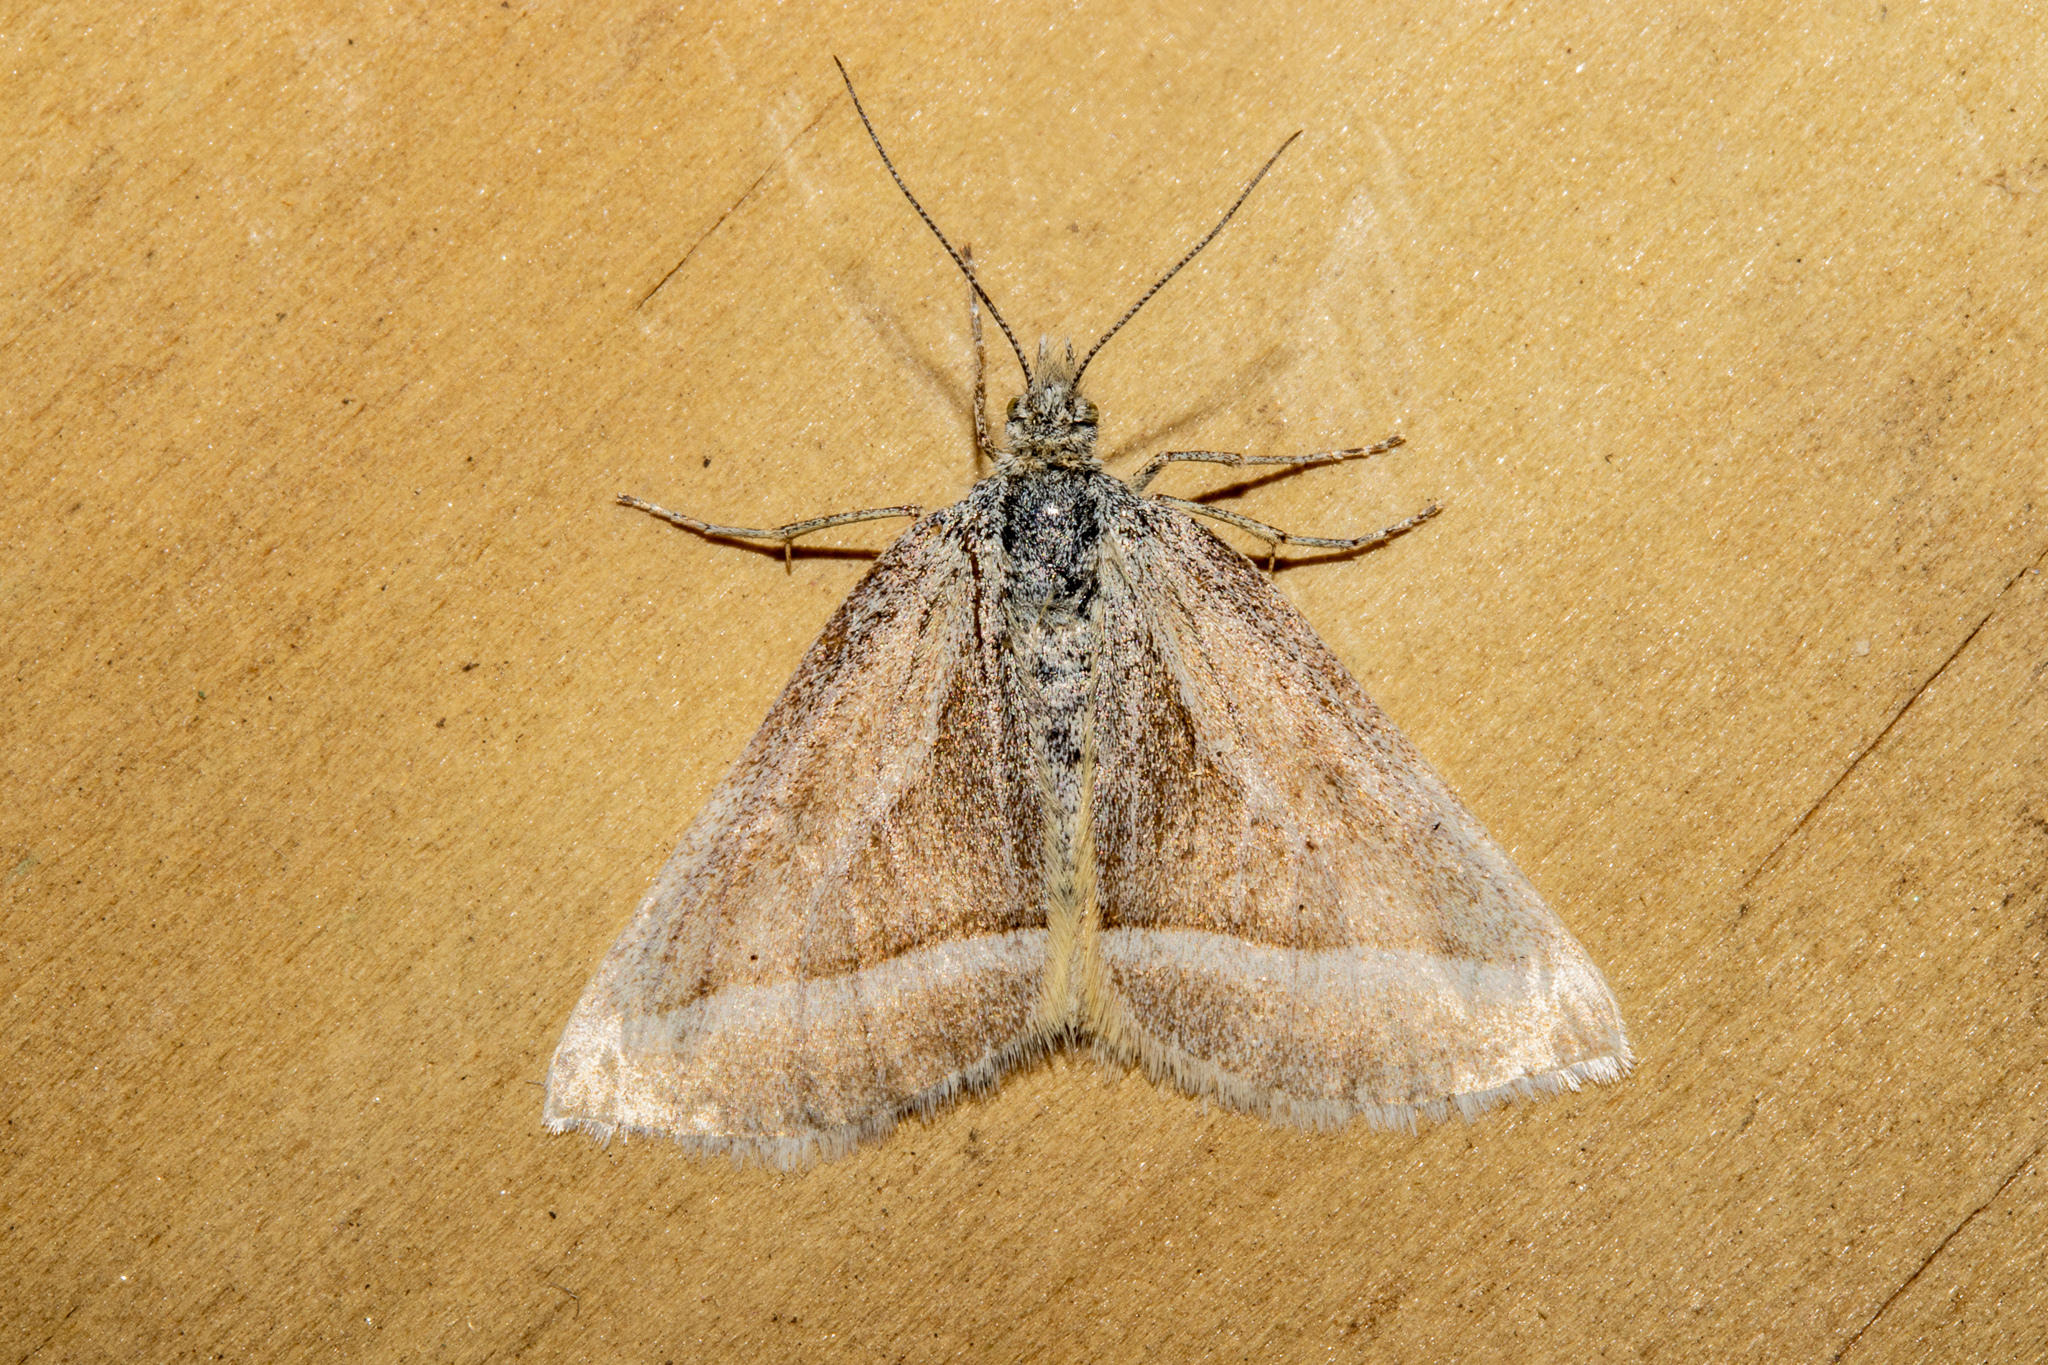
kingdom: Animalia
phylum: Arthropoda
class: Insecta
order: Lepidoptera
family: Geometridae
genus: Aponotoreas
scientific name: Aponotoreas insignis
